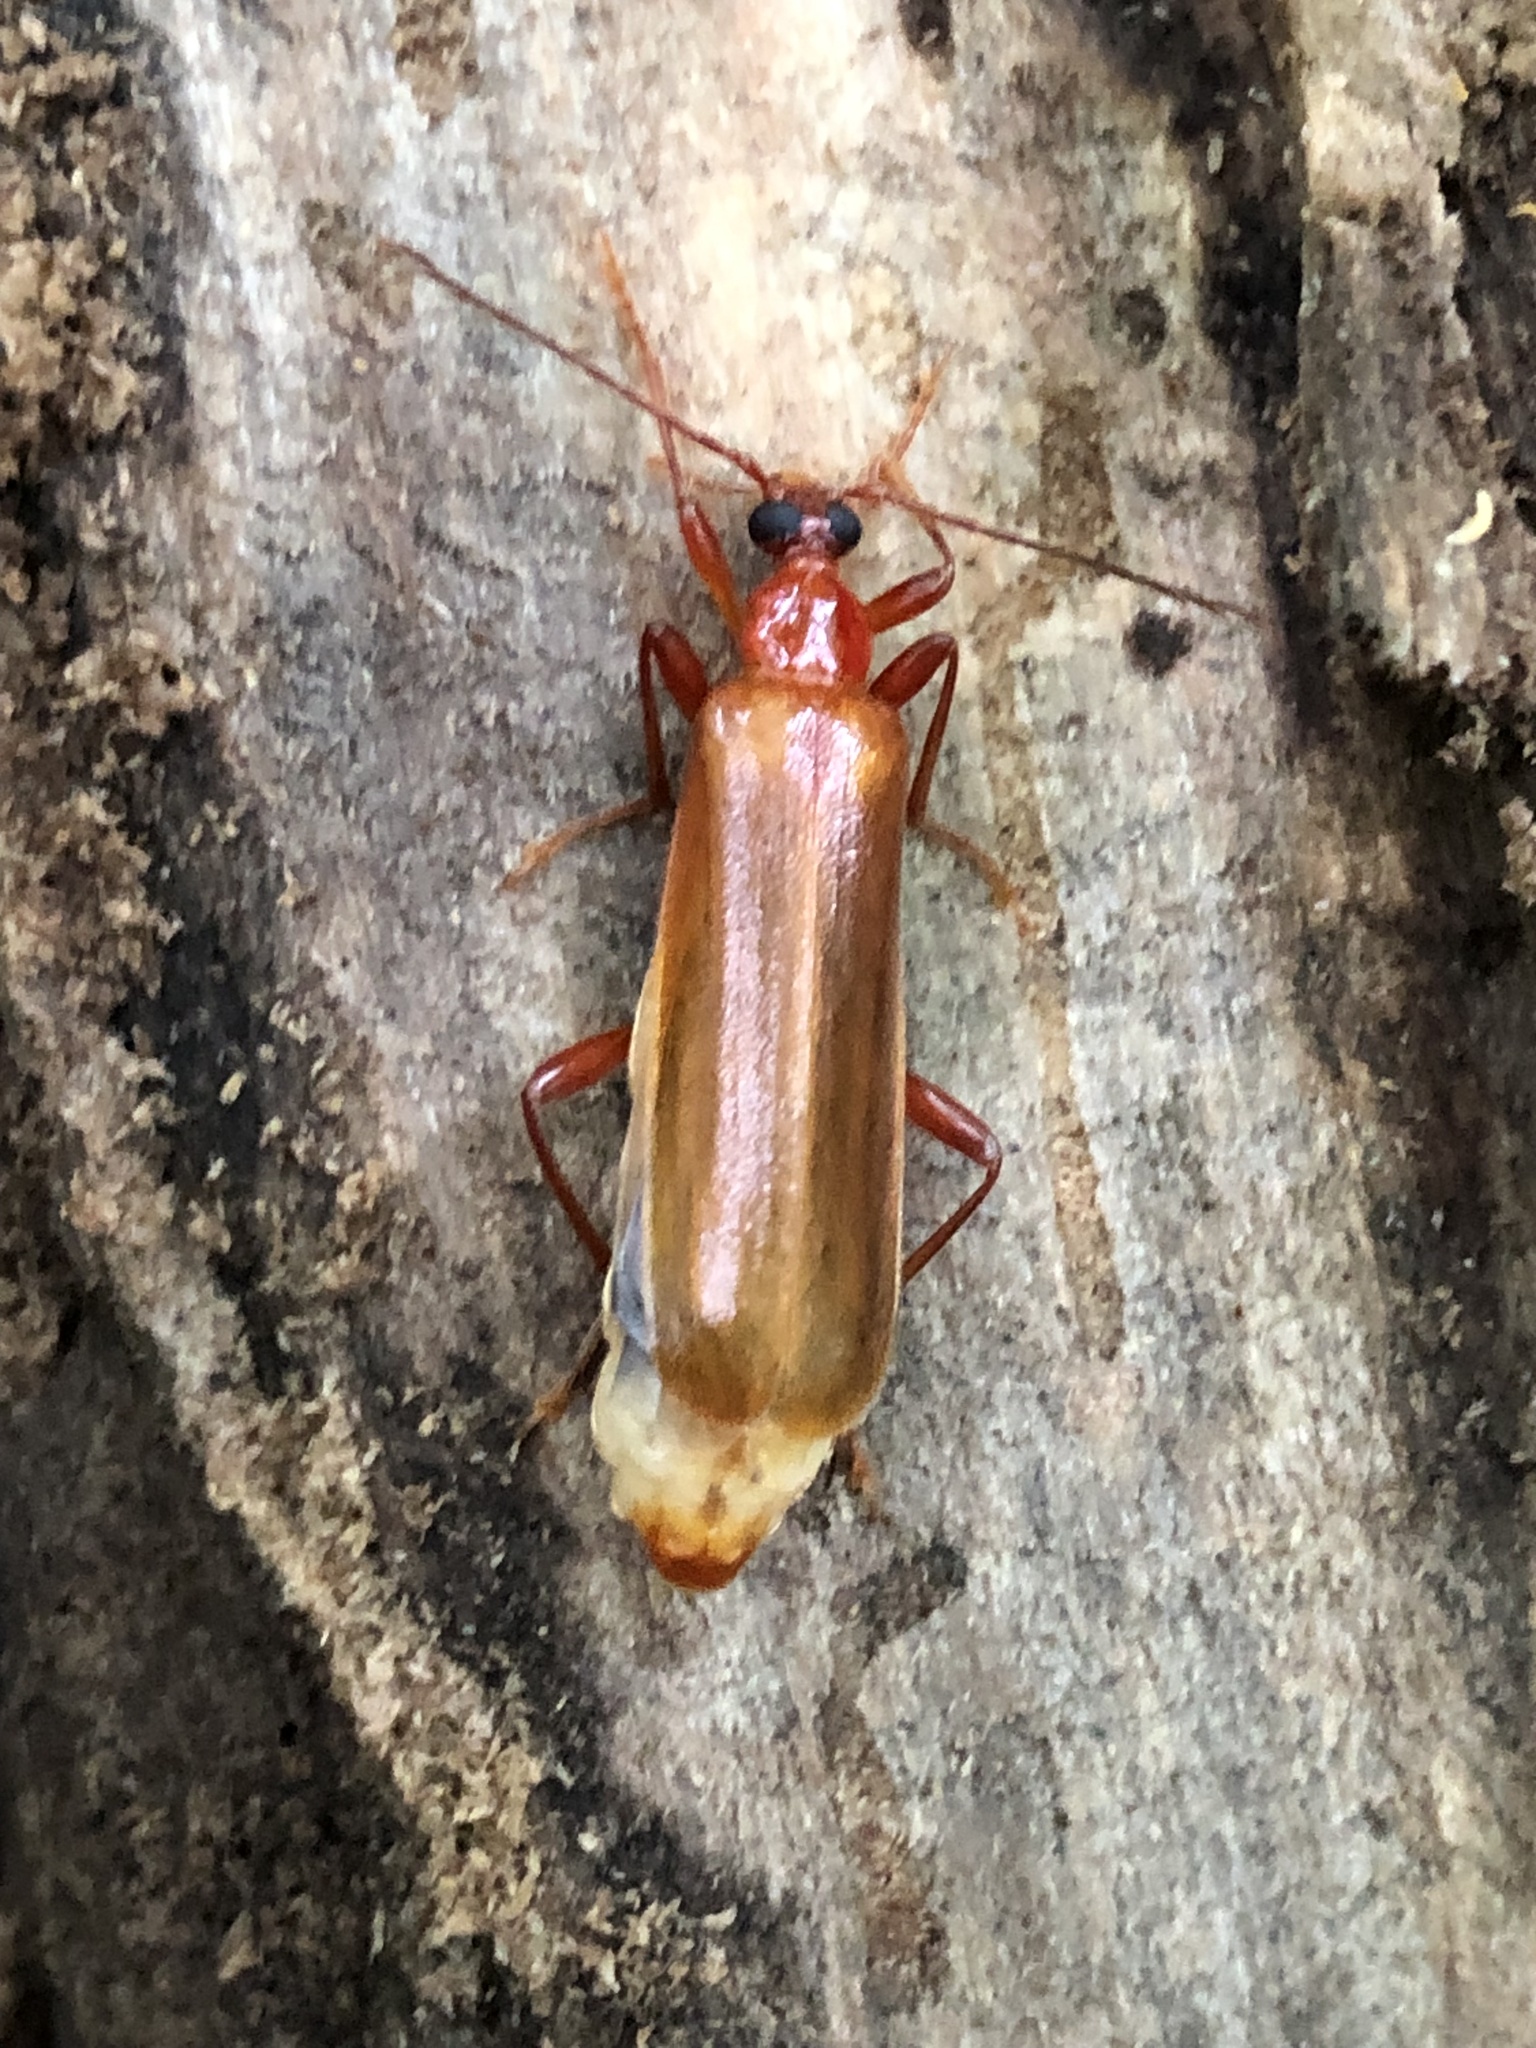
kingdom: Animalia
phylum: Arthropoda
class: Insecta
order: Coleoptera
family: Pyrochroidae
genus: Dendroides
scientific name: Dendroides ephemeroides
